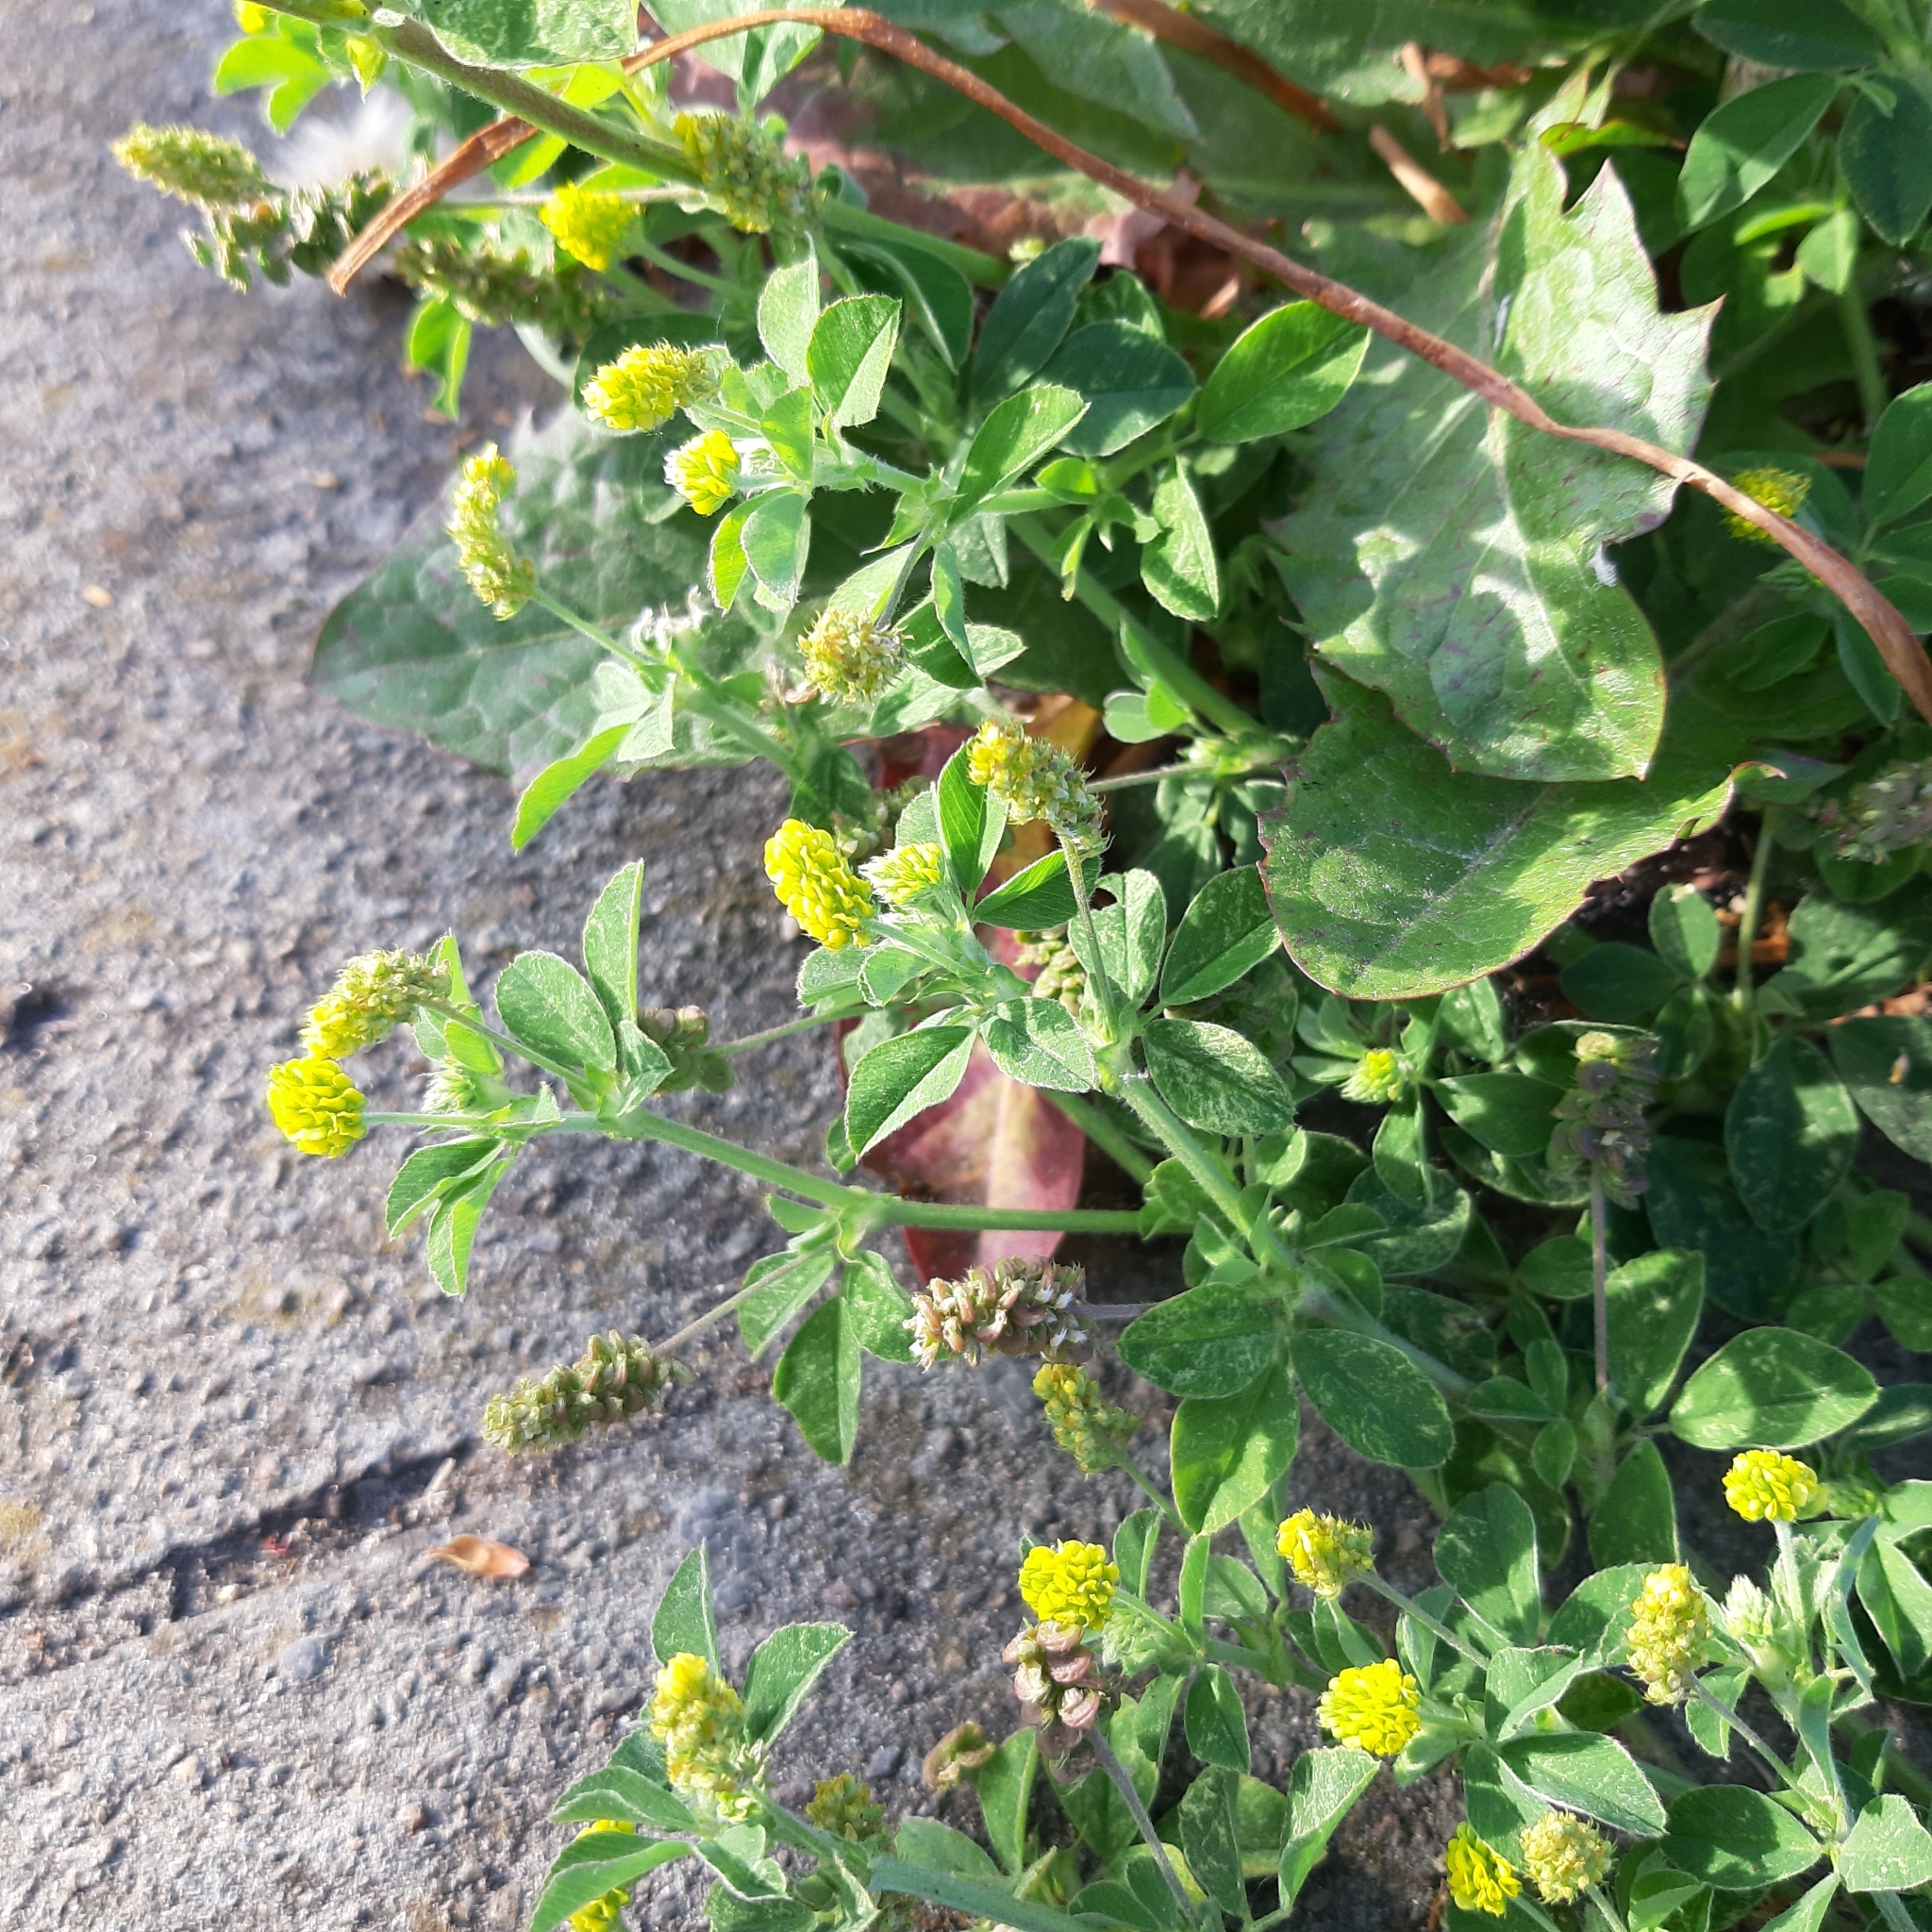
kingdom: Plantae
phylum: Tracheophyta
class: Magnoliopsida
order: Fabales
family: Fabaceae
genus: Medicago
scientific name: Medicago lupulina
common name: Black medick
